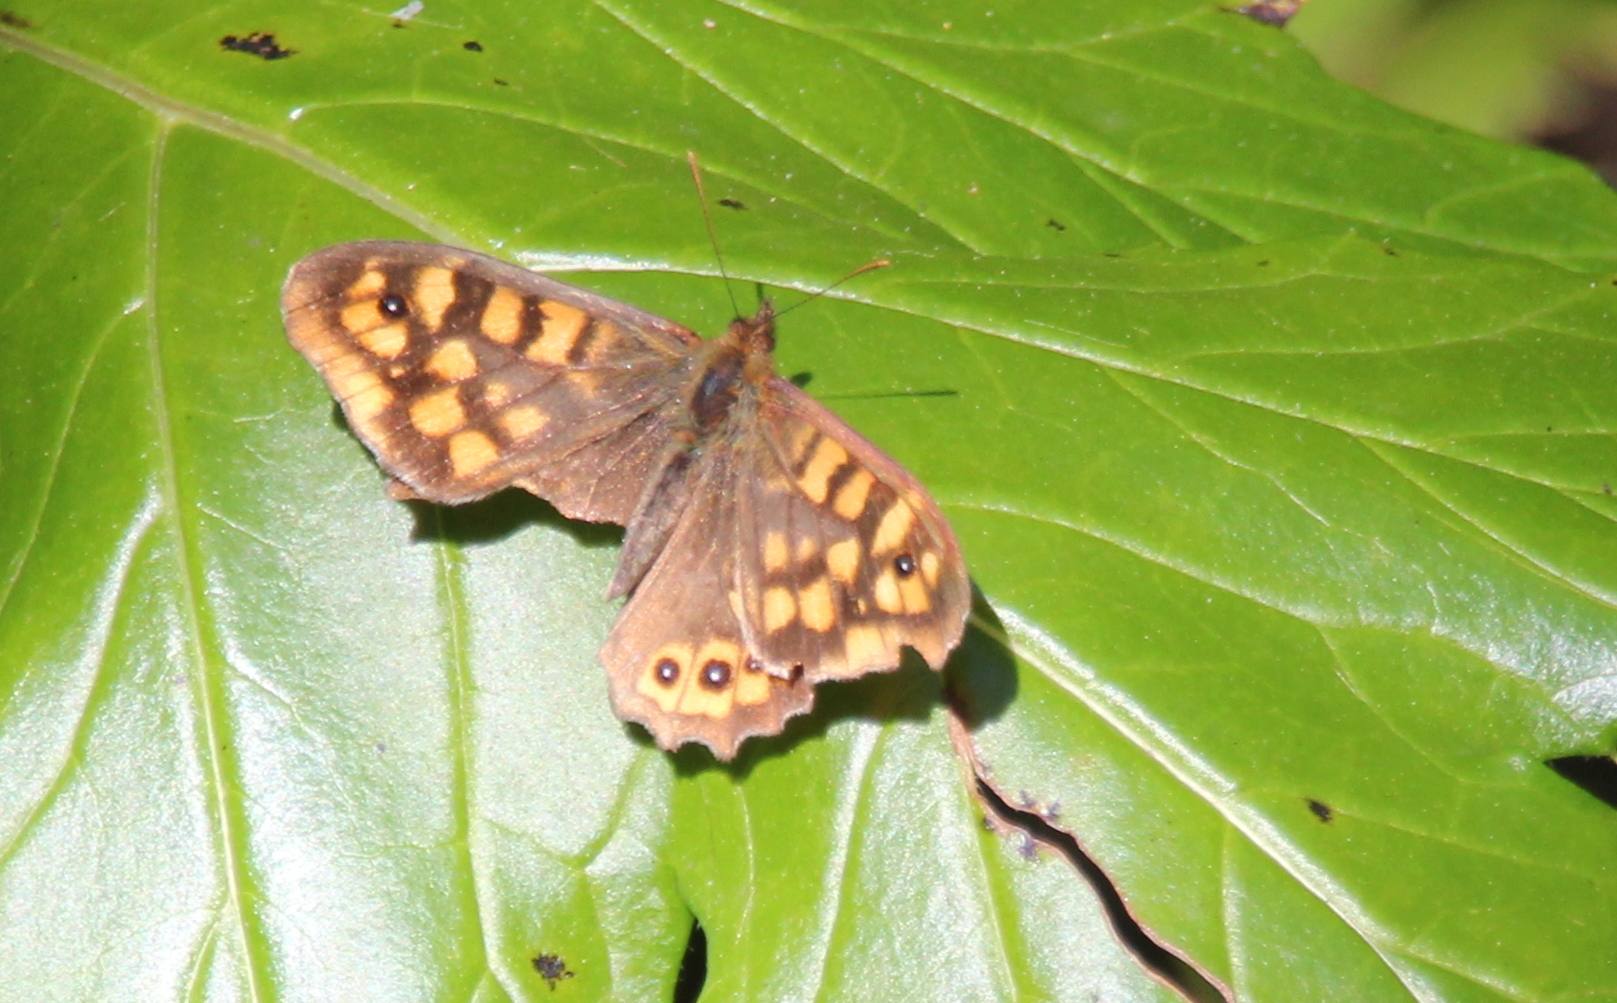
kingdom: Animalia
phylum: Arthropoda
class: Insecta
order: Lepidoptera
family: Nymphalidae
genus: Pararge
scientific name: Pararge aegeria
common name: Speckled wood
